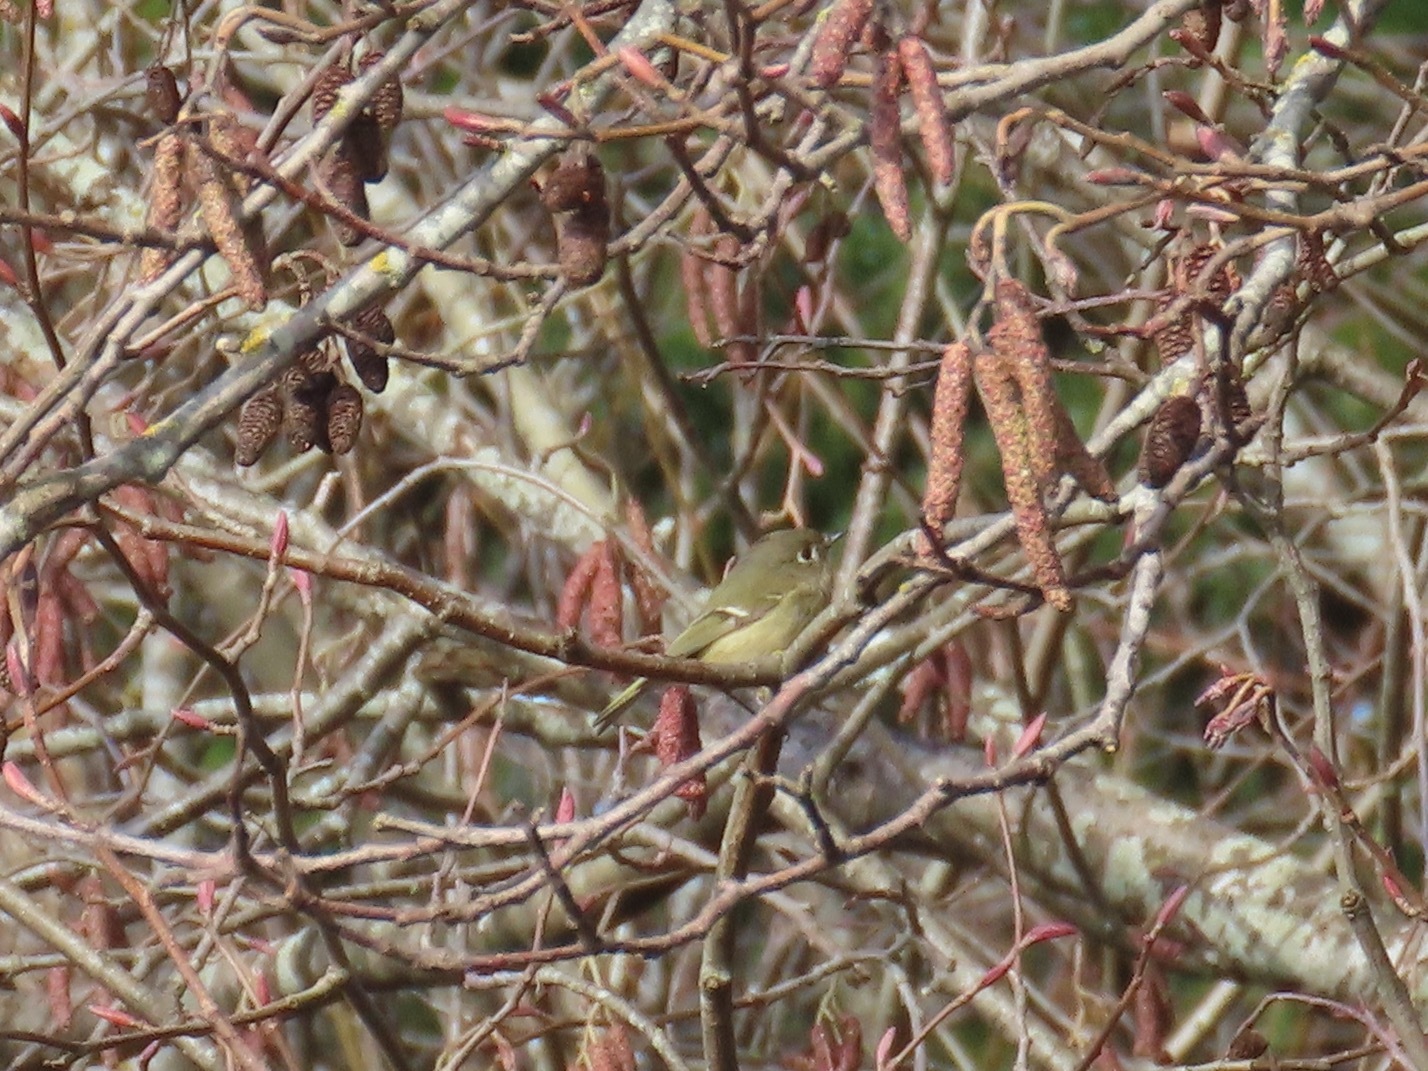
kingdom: Animalia
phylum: Chordata
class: Aves
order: Passeriformes
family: Regulidae
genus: Regulus
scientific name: Regulus calendula
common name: Ruby-crowned kinglet
